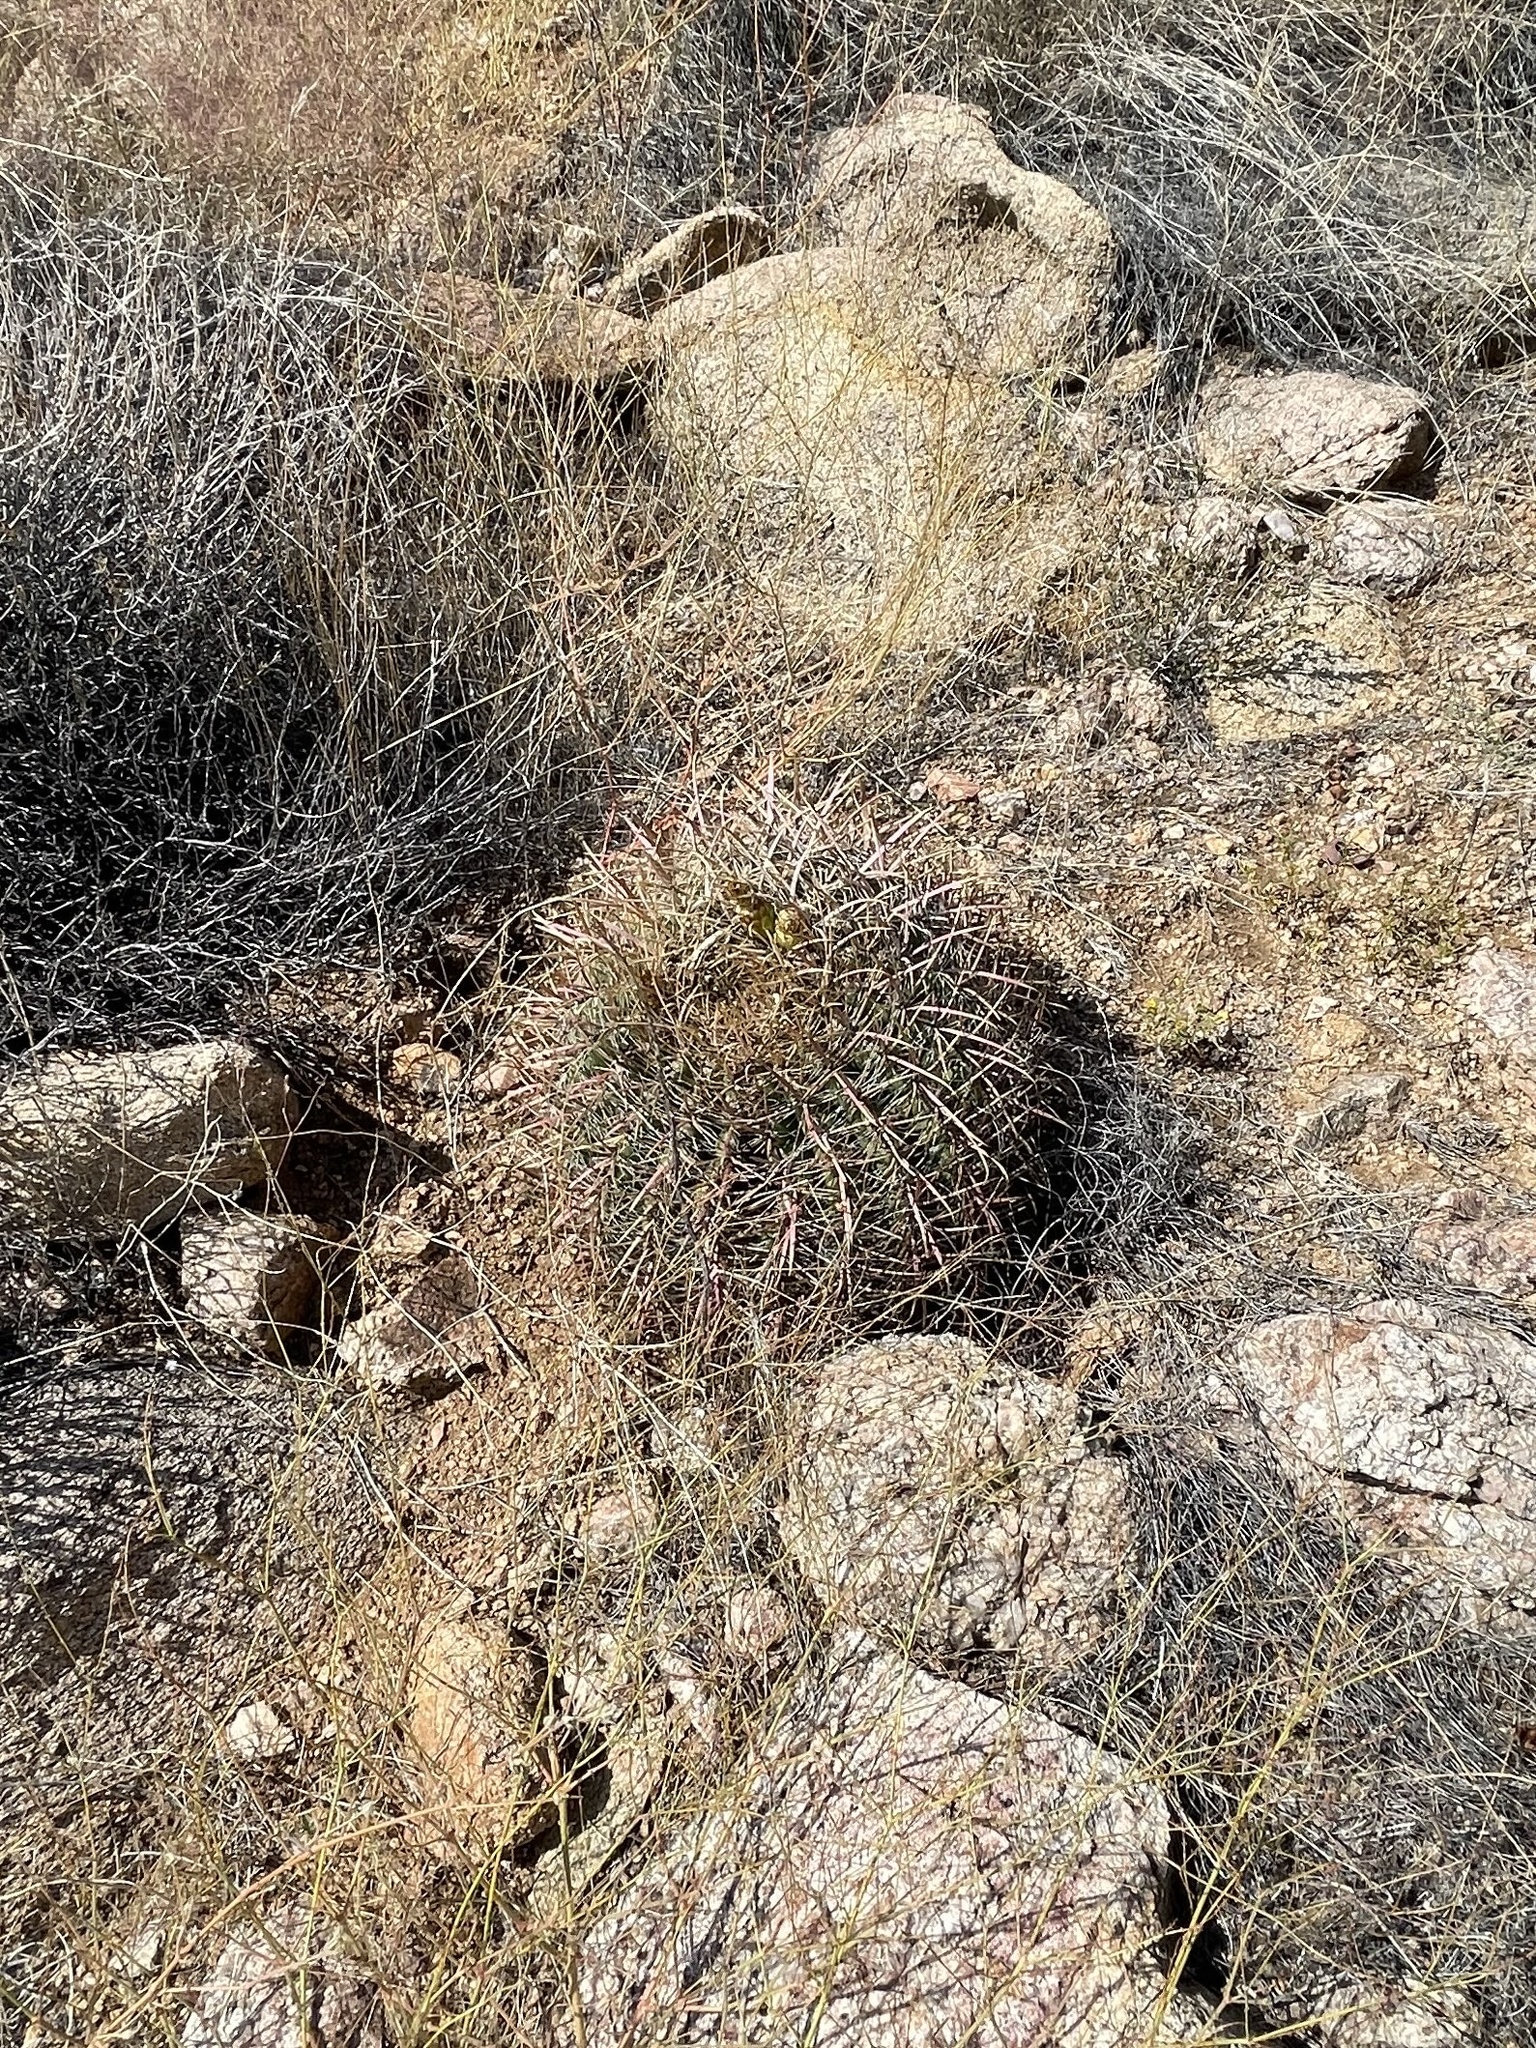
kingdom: Plantae
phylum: Tracheophyta
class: Magnoliopsida
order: Caryophyllales
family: Cactaceae
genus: Ferocactus
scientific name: Ferocactus cylindraceus
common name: California barrel cactus
